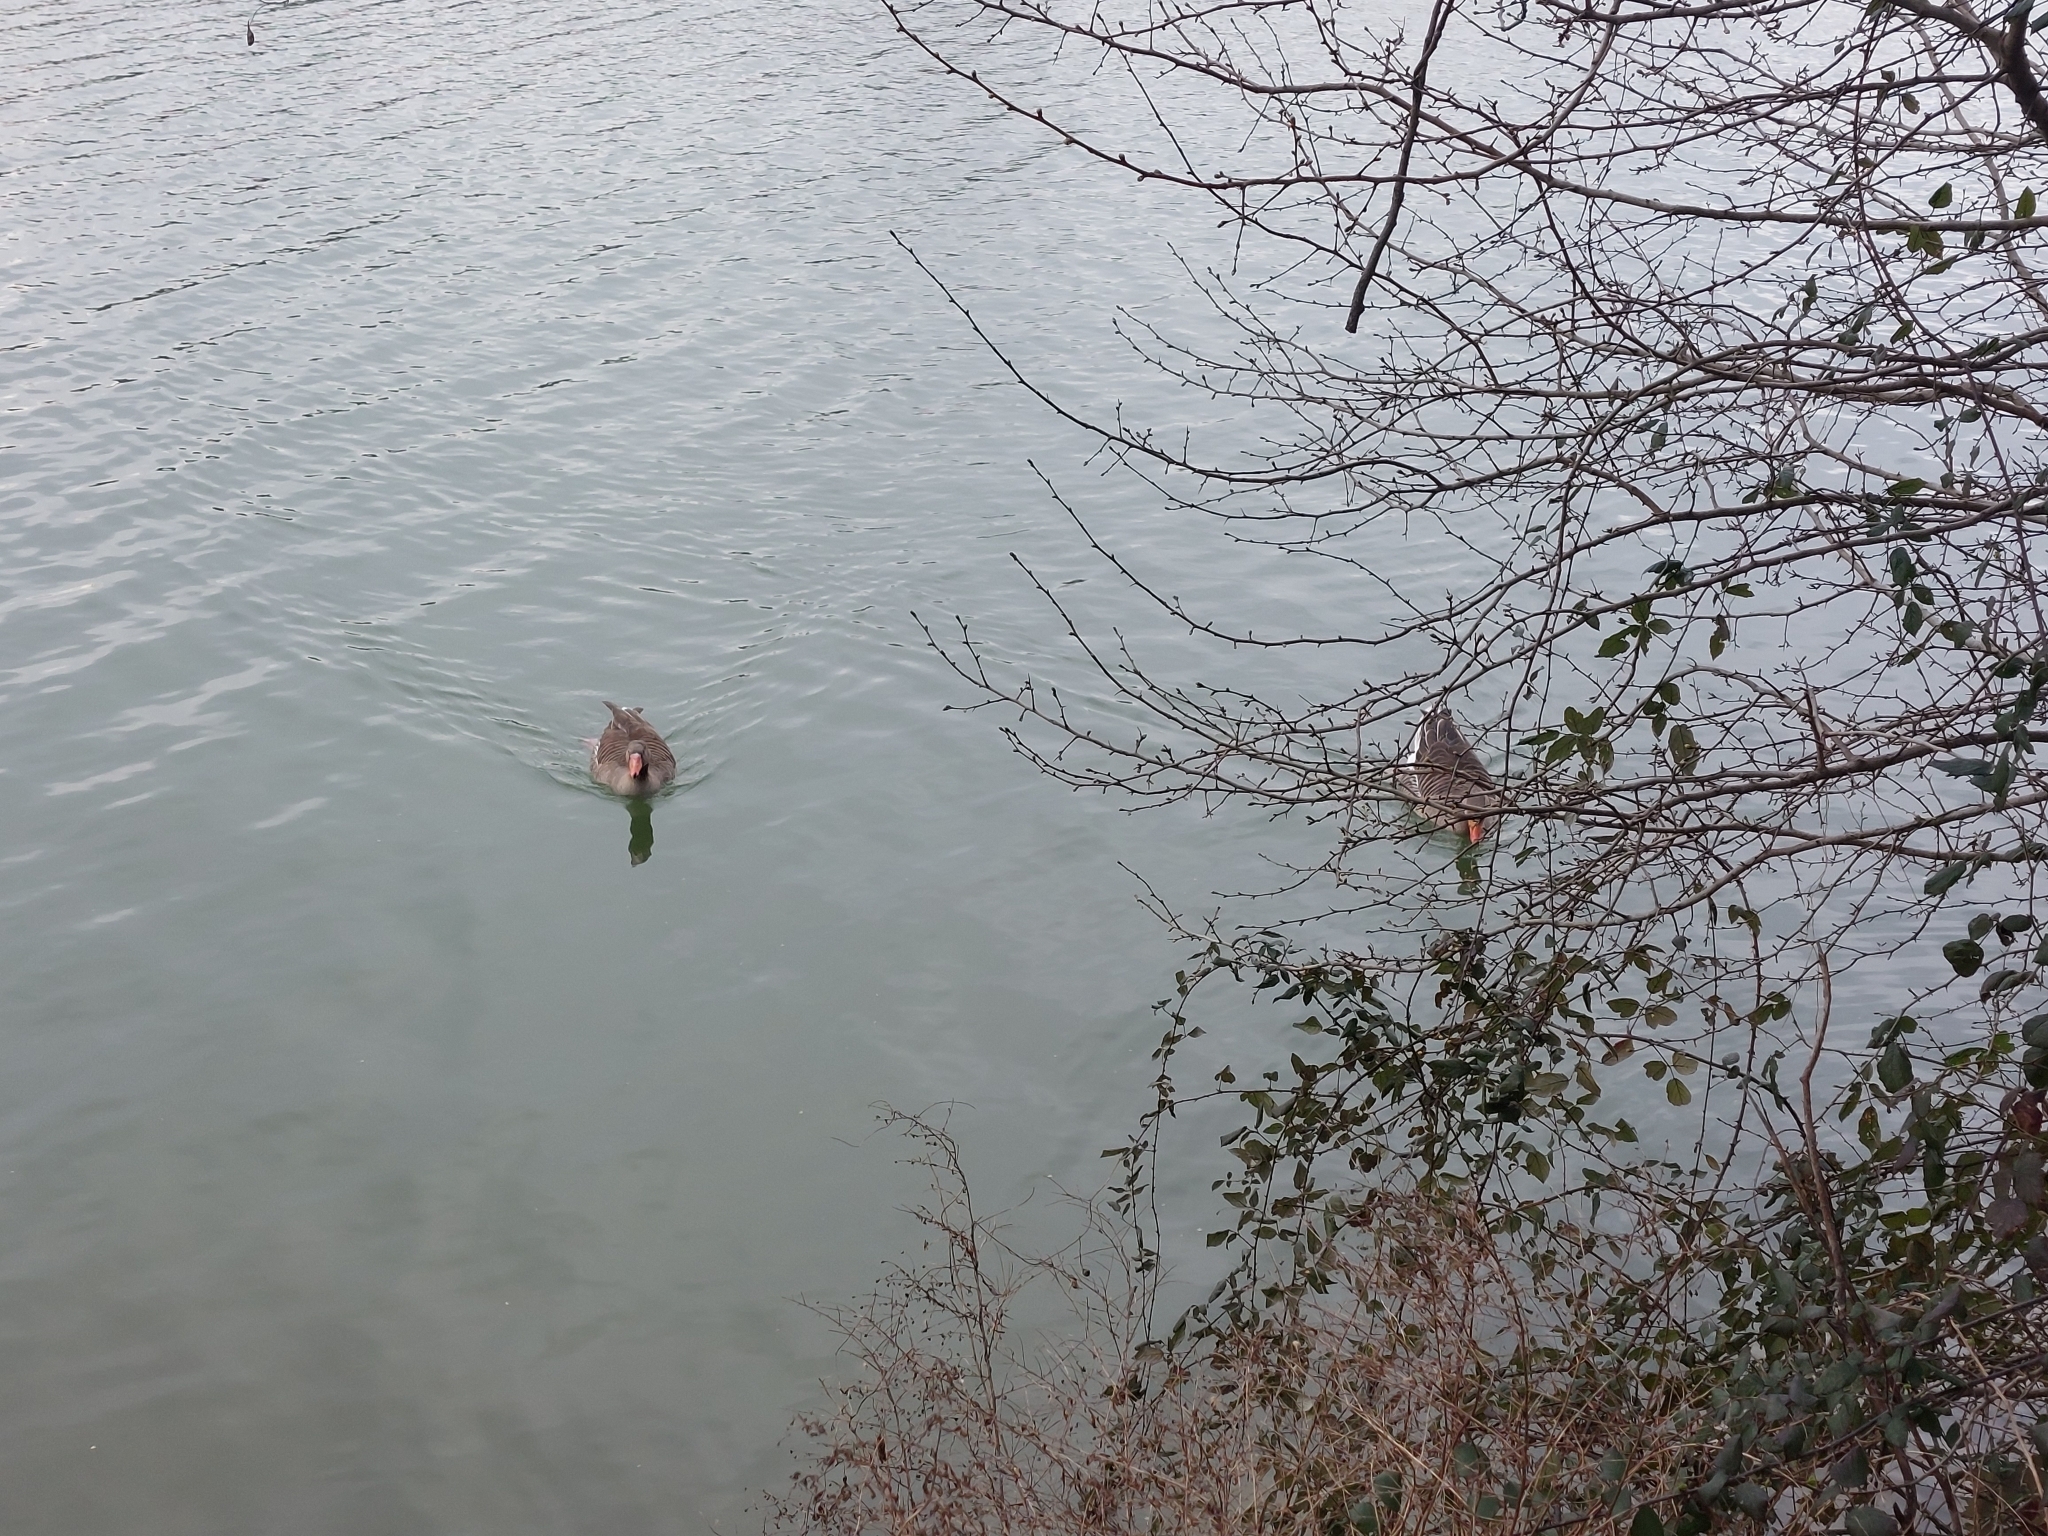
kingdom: Animalia
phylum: Chordata
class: Aves
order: Anseriformes
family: Anatidae
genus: Anser
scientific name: Anser anser
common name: Greylag goose
